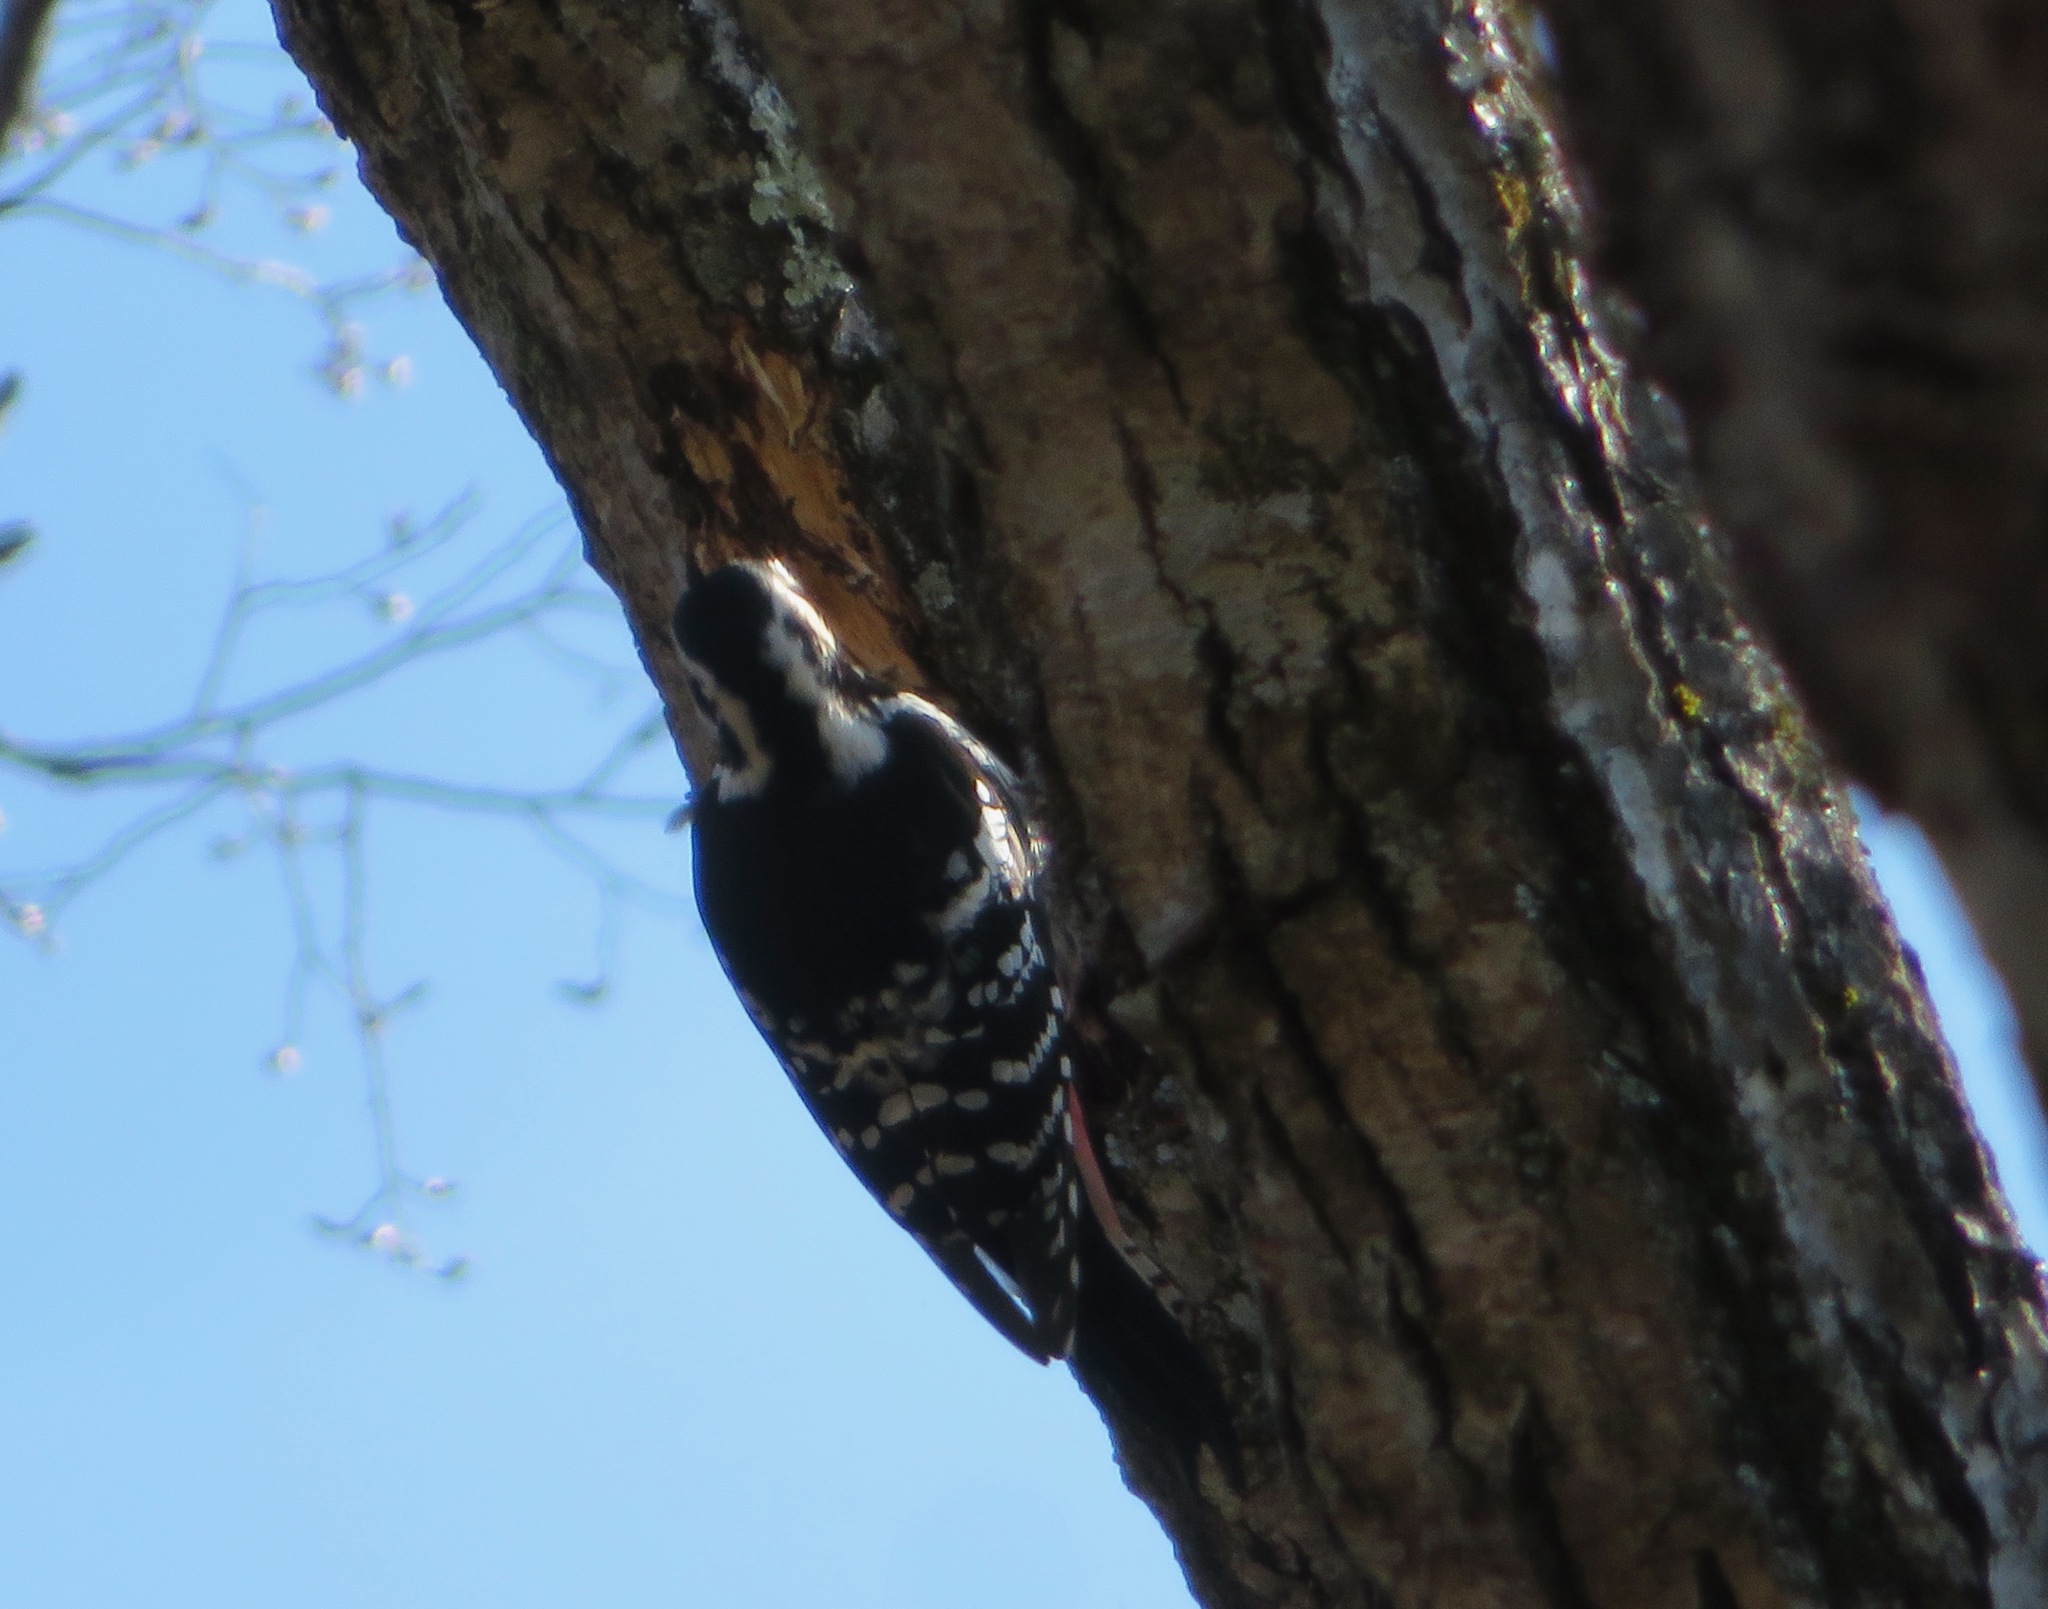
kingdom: Animalia
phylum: Chordata
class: Aves
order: Piciformes
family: Picidae
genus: Dendrocopos
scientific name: Dendrocopos leucotos
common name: White-backed woodpecker
